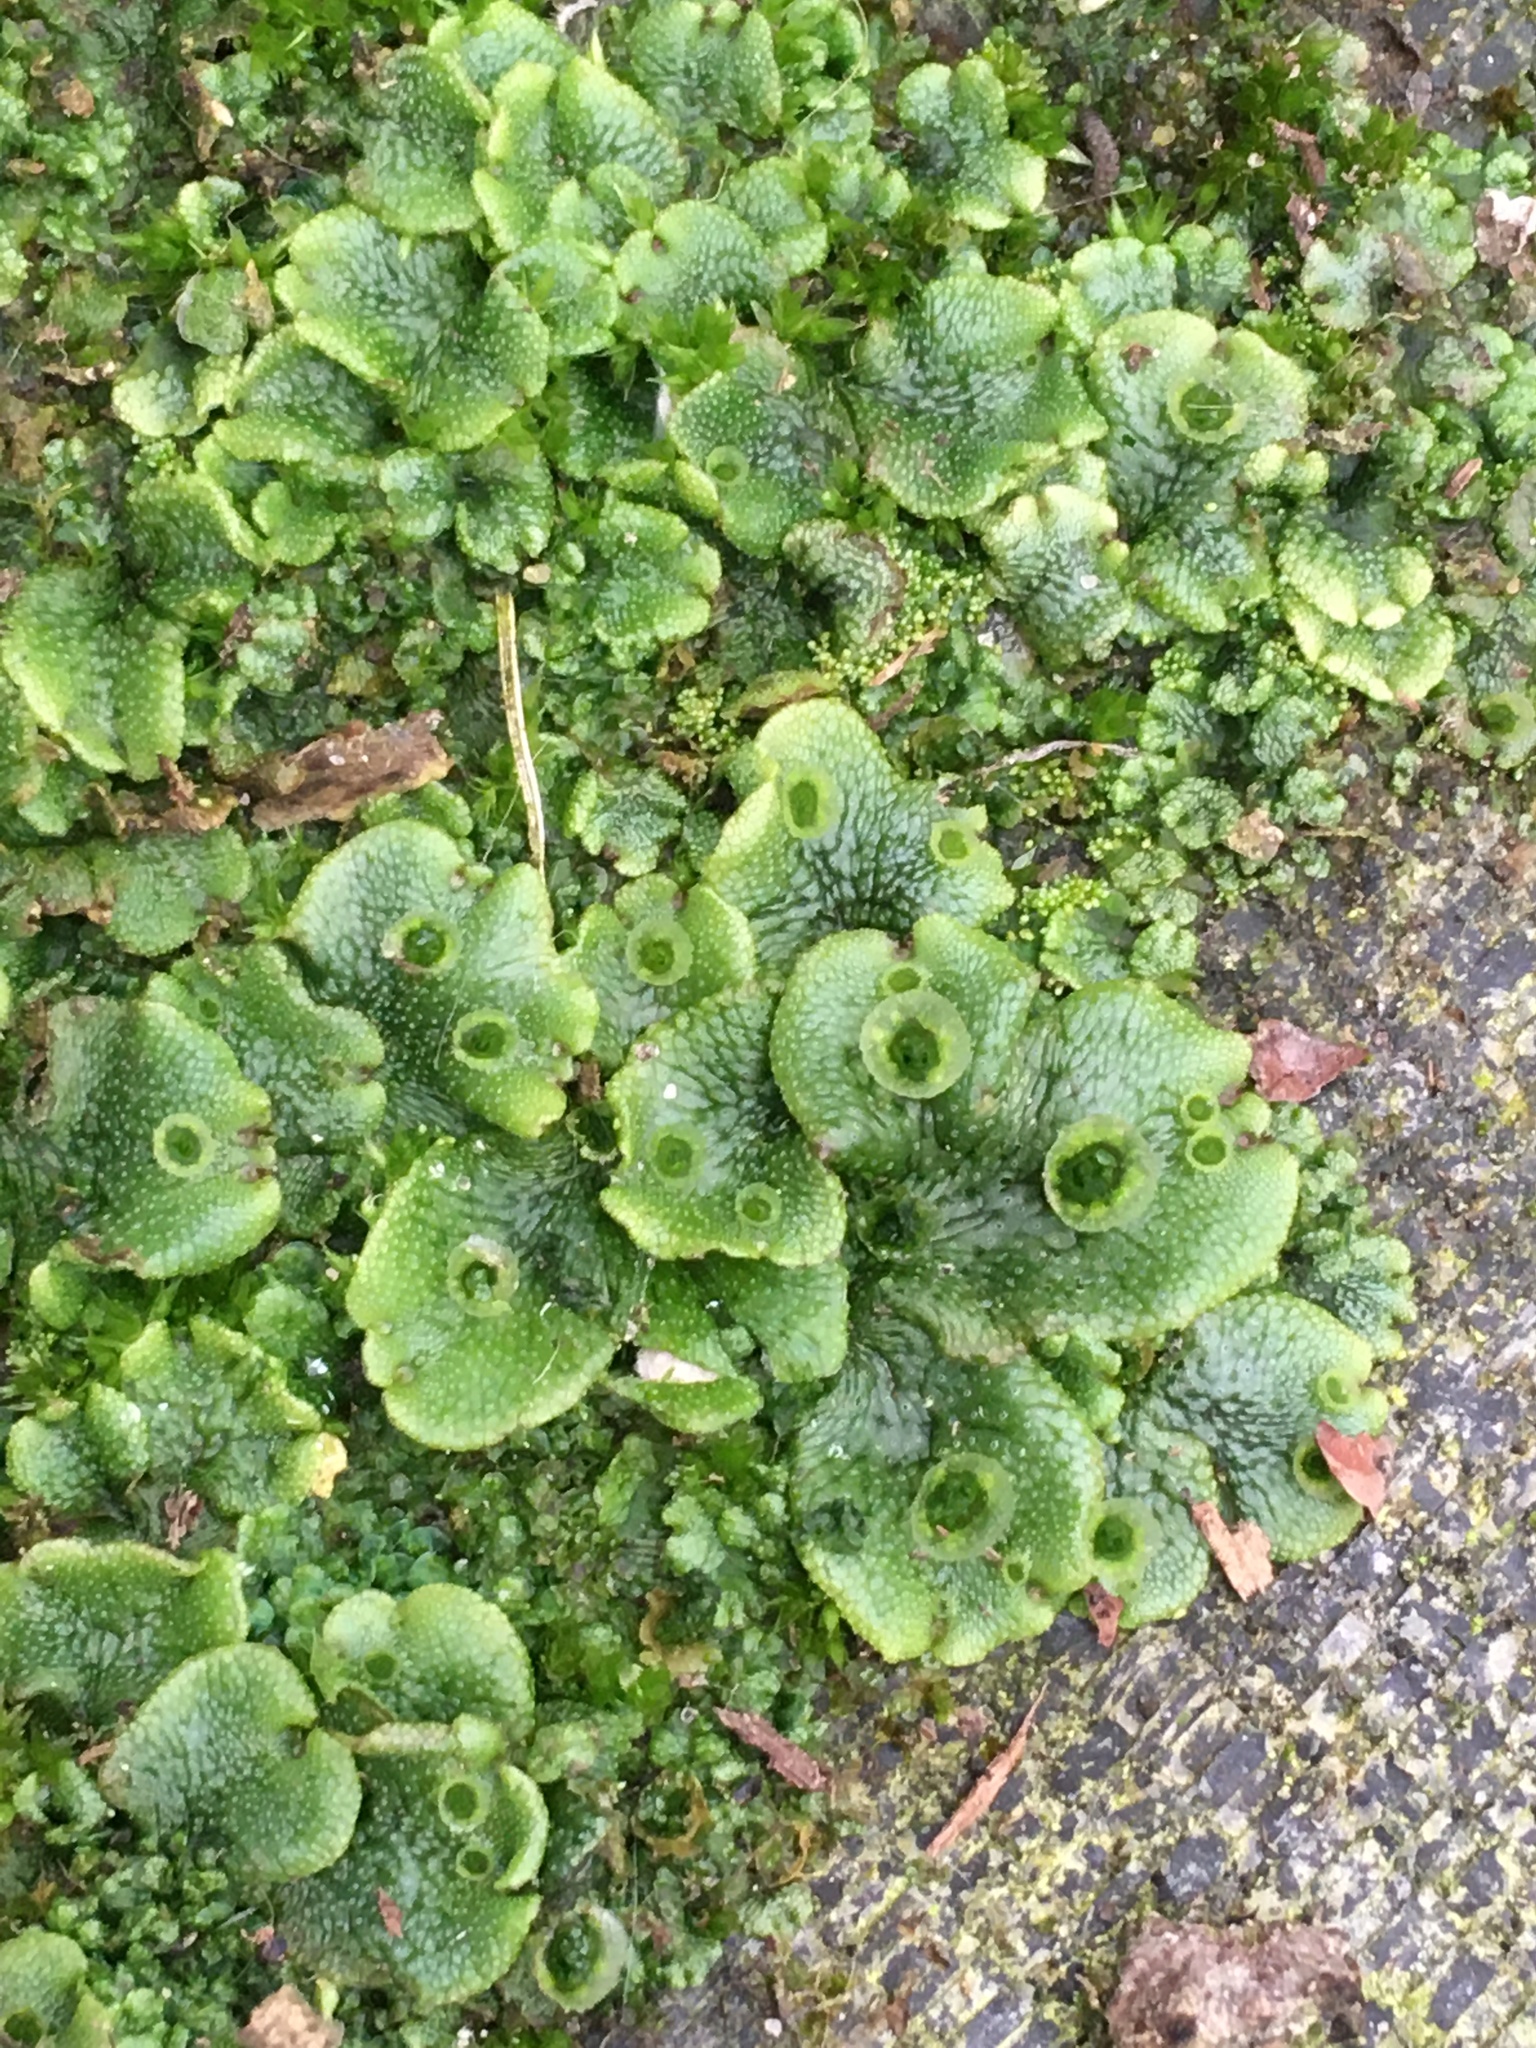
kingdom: Plantae
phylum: Marchantiophyta
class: Marchantiopsida
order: Marchantiales
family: Marchantiaceae
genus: Marchantia
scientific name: Marchantia polymorpha
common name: Common liverwort
